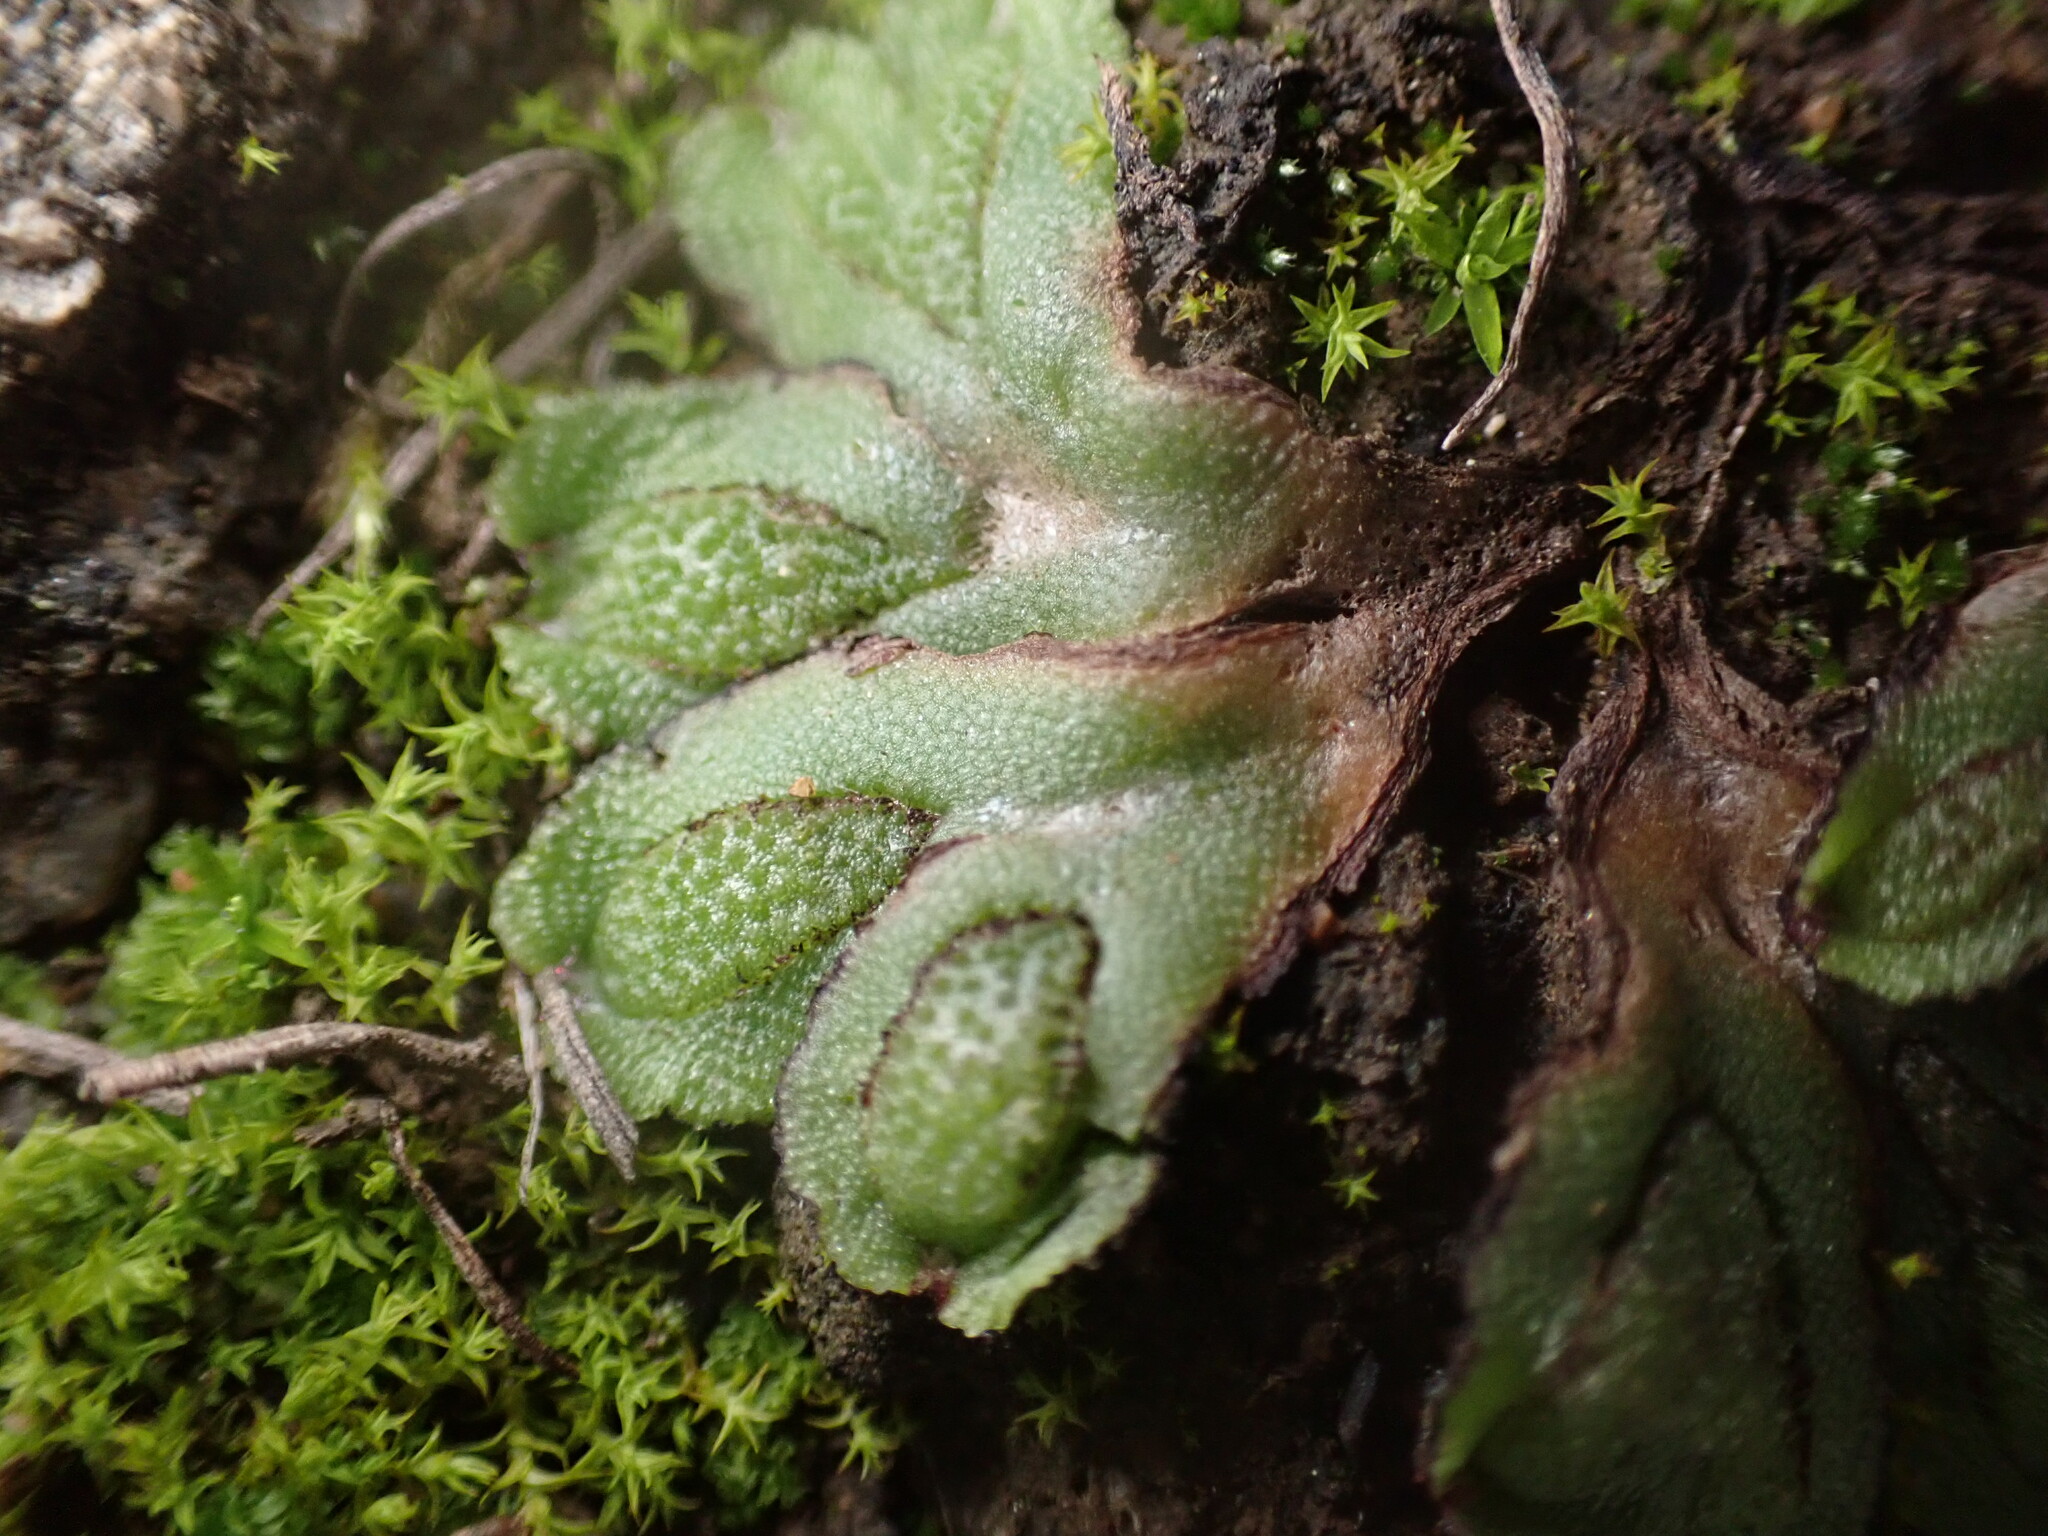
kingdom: Plantae
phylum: Marchantiophyta
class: Marchantiopsida
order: Marchantiales
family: Aytoniaceae
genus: Asterella
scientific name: Asterella californica
